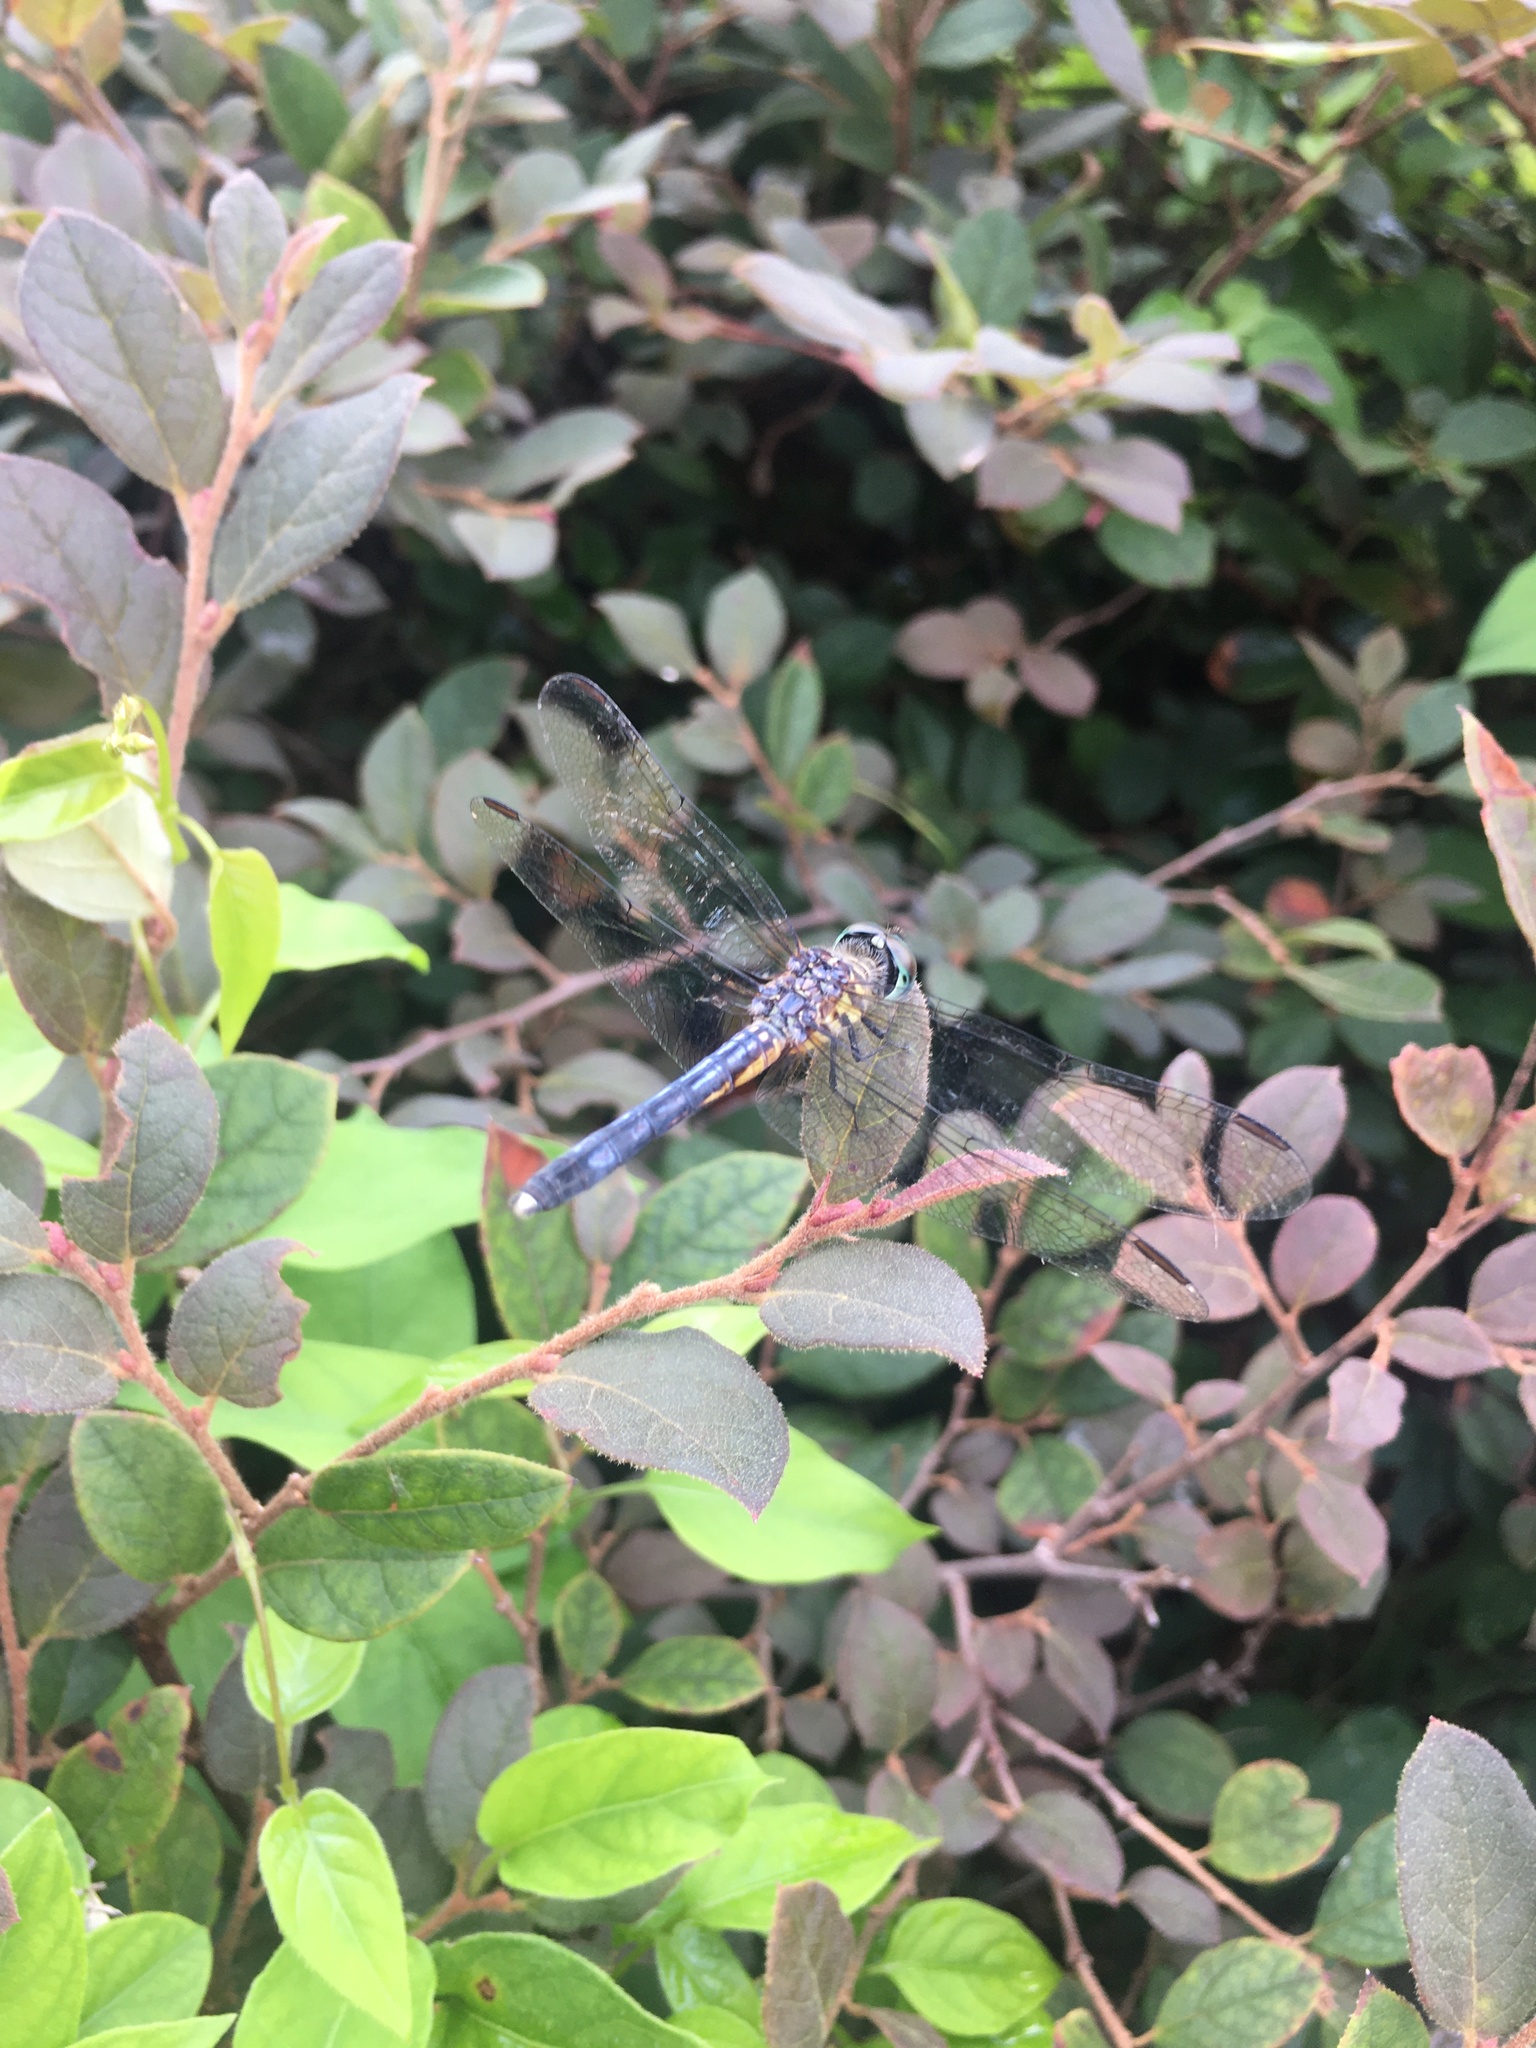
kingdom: Animalia
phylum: Arthropoda
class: Insecta
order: Odonata
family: Libellulidae
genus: Pachydiplax
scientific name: Pachydiplax longipennis
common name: Blue dasher
